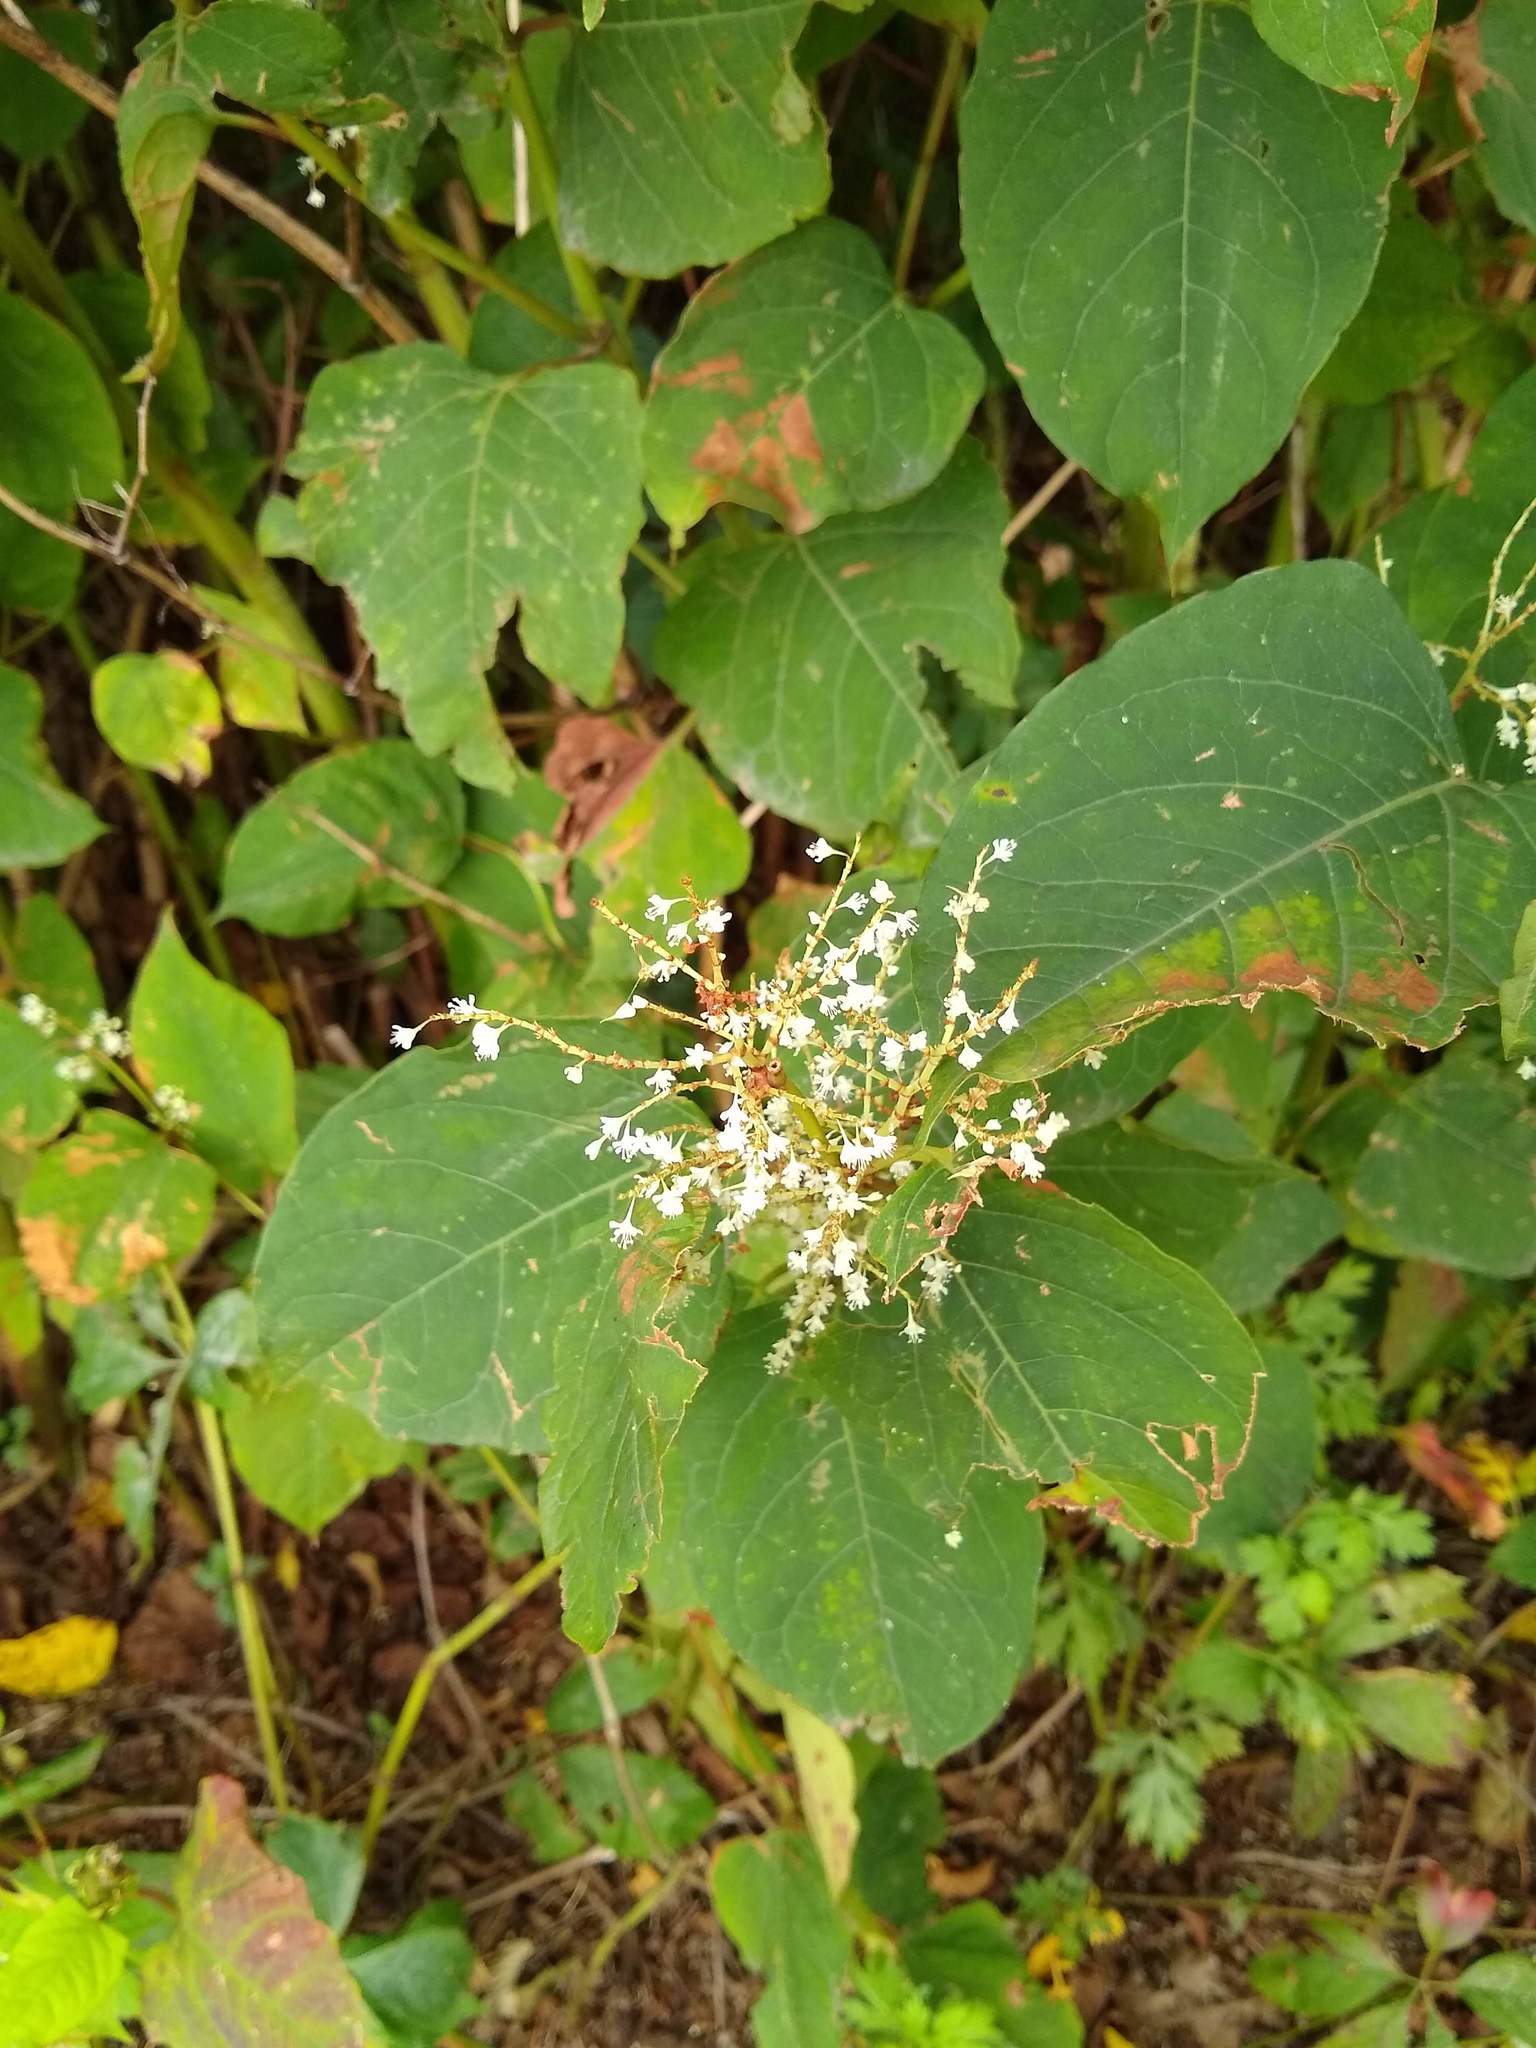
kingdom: Plantae
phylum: Tracheophyta
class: Magnoliopsida
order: Caryophyllales
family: Polygonaceae
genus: Reynoutria
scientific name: Reynoutria japonica
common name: Japanese knotweed
